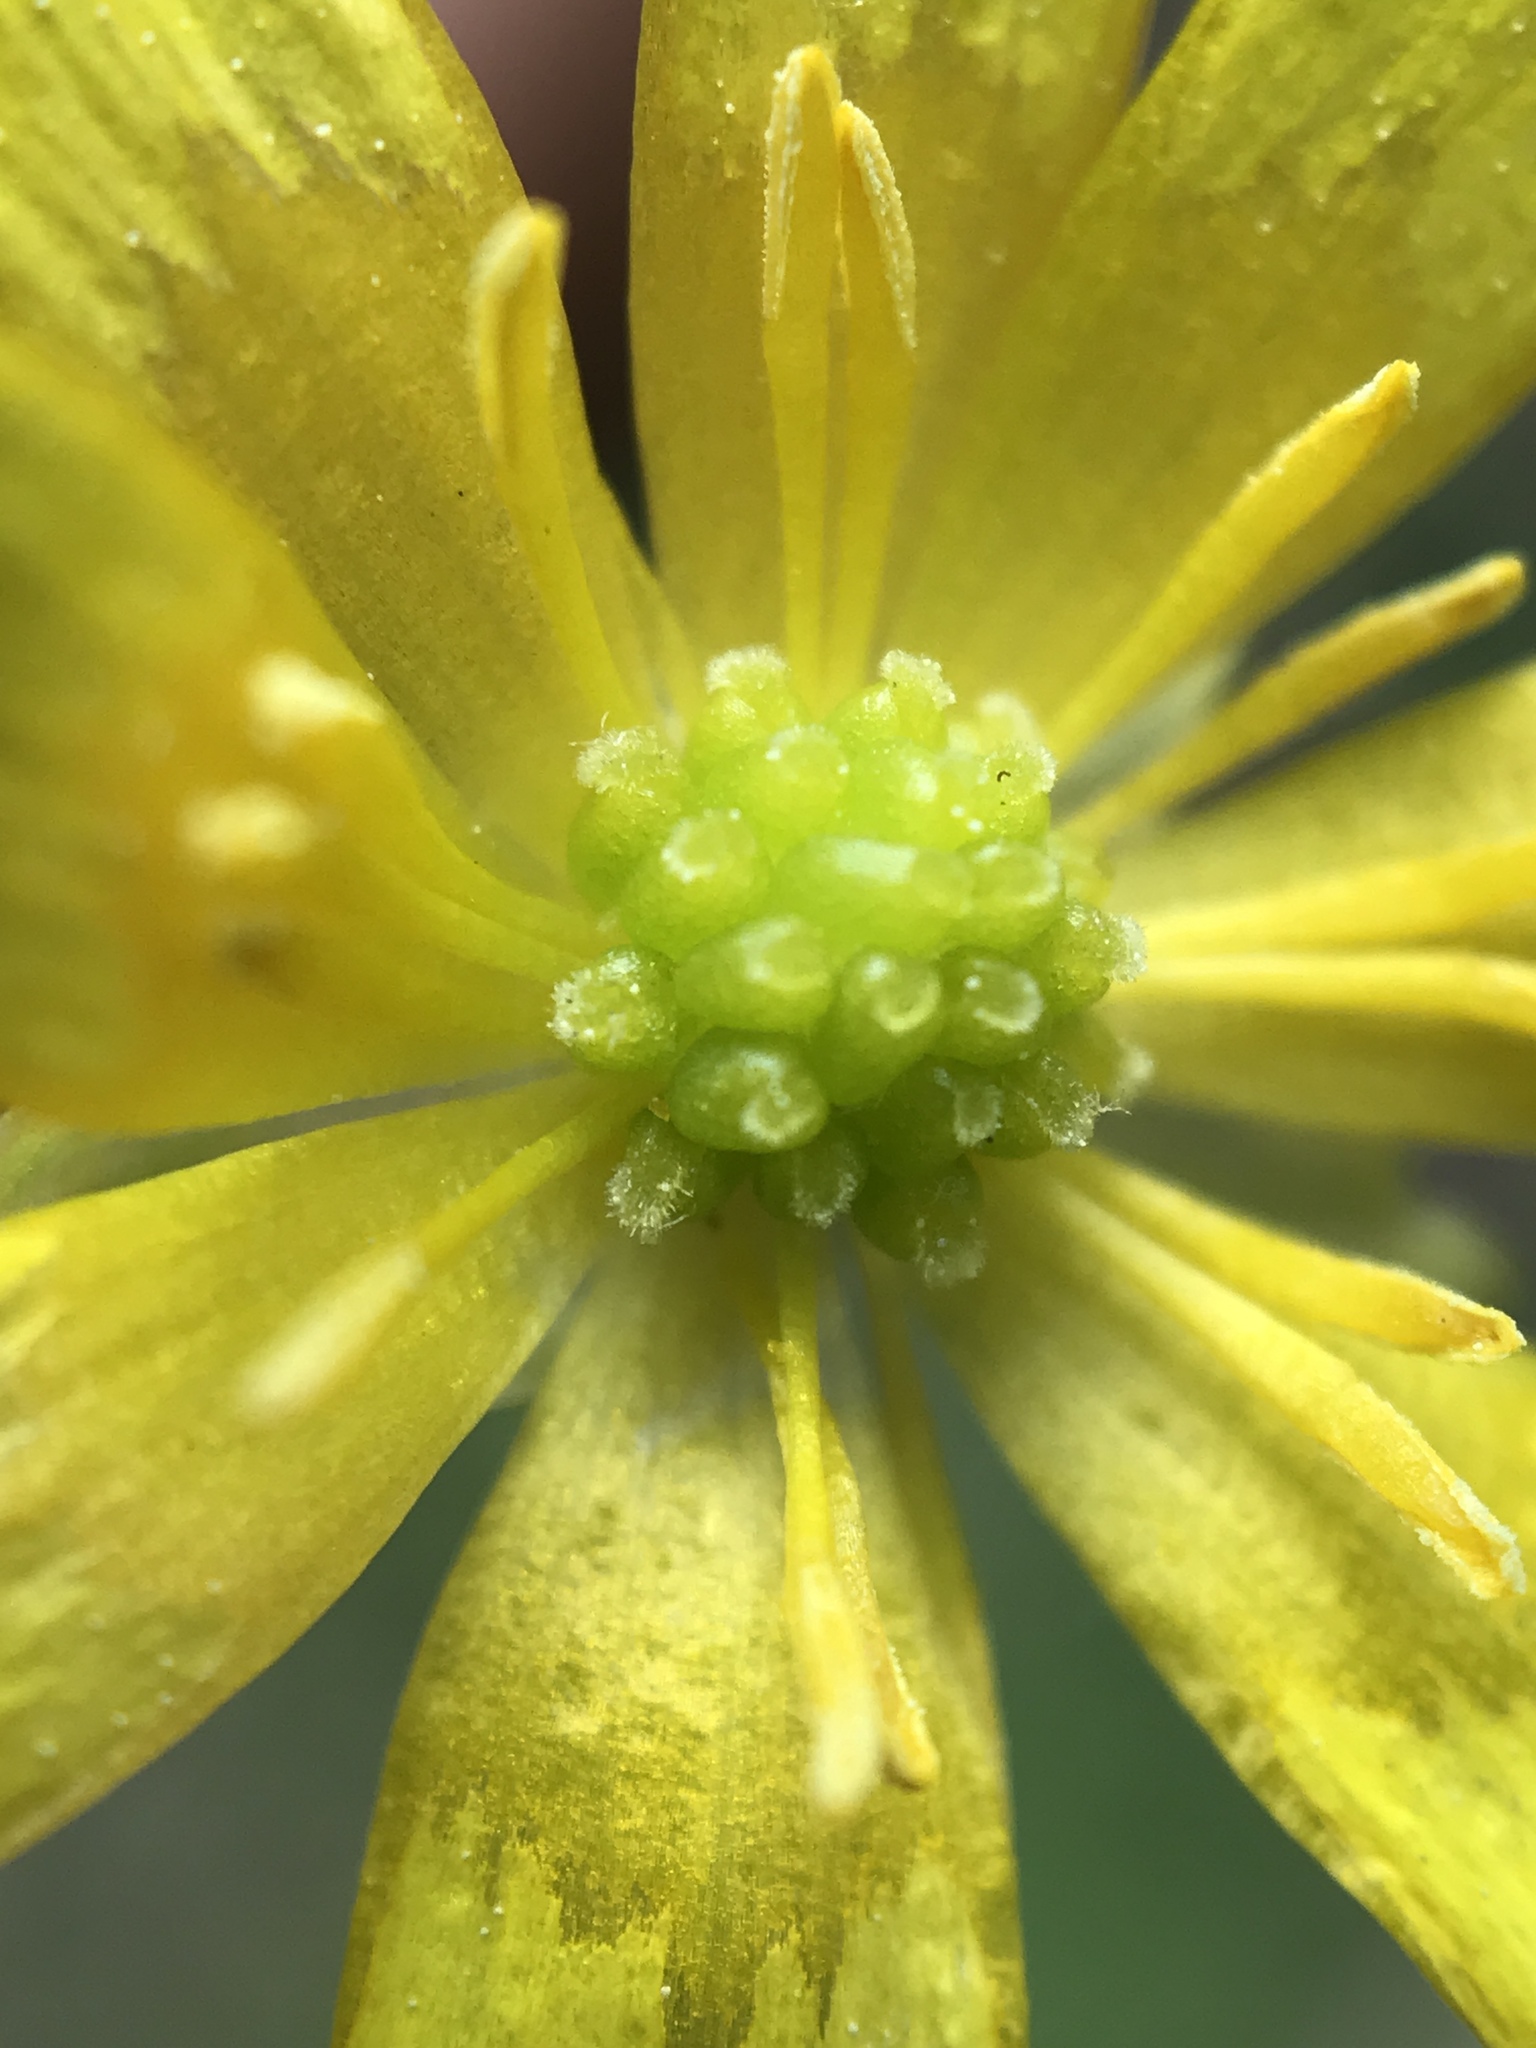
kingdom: Plantae
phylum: Tracheophyta
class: Magnoliopsida
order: Ranunculales
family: Ranunculaceae
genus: Ficaria
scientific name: Ficaria verna
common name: Lesser celandine
